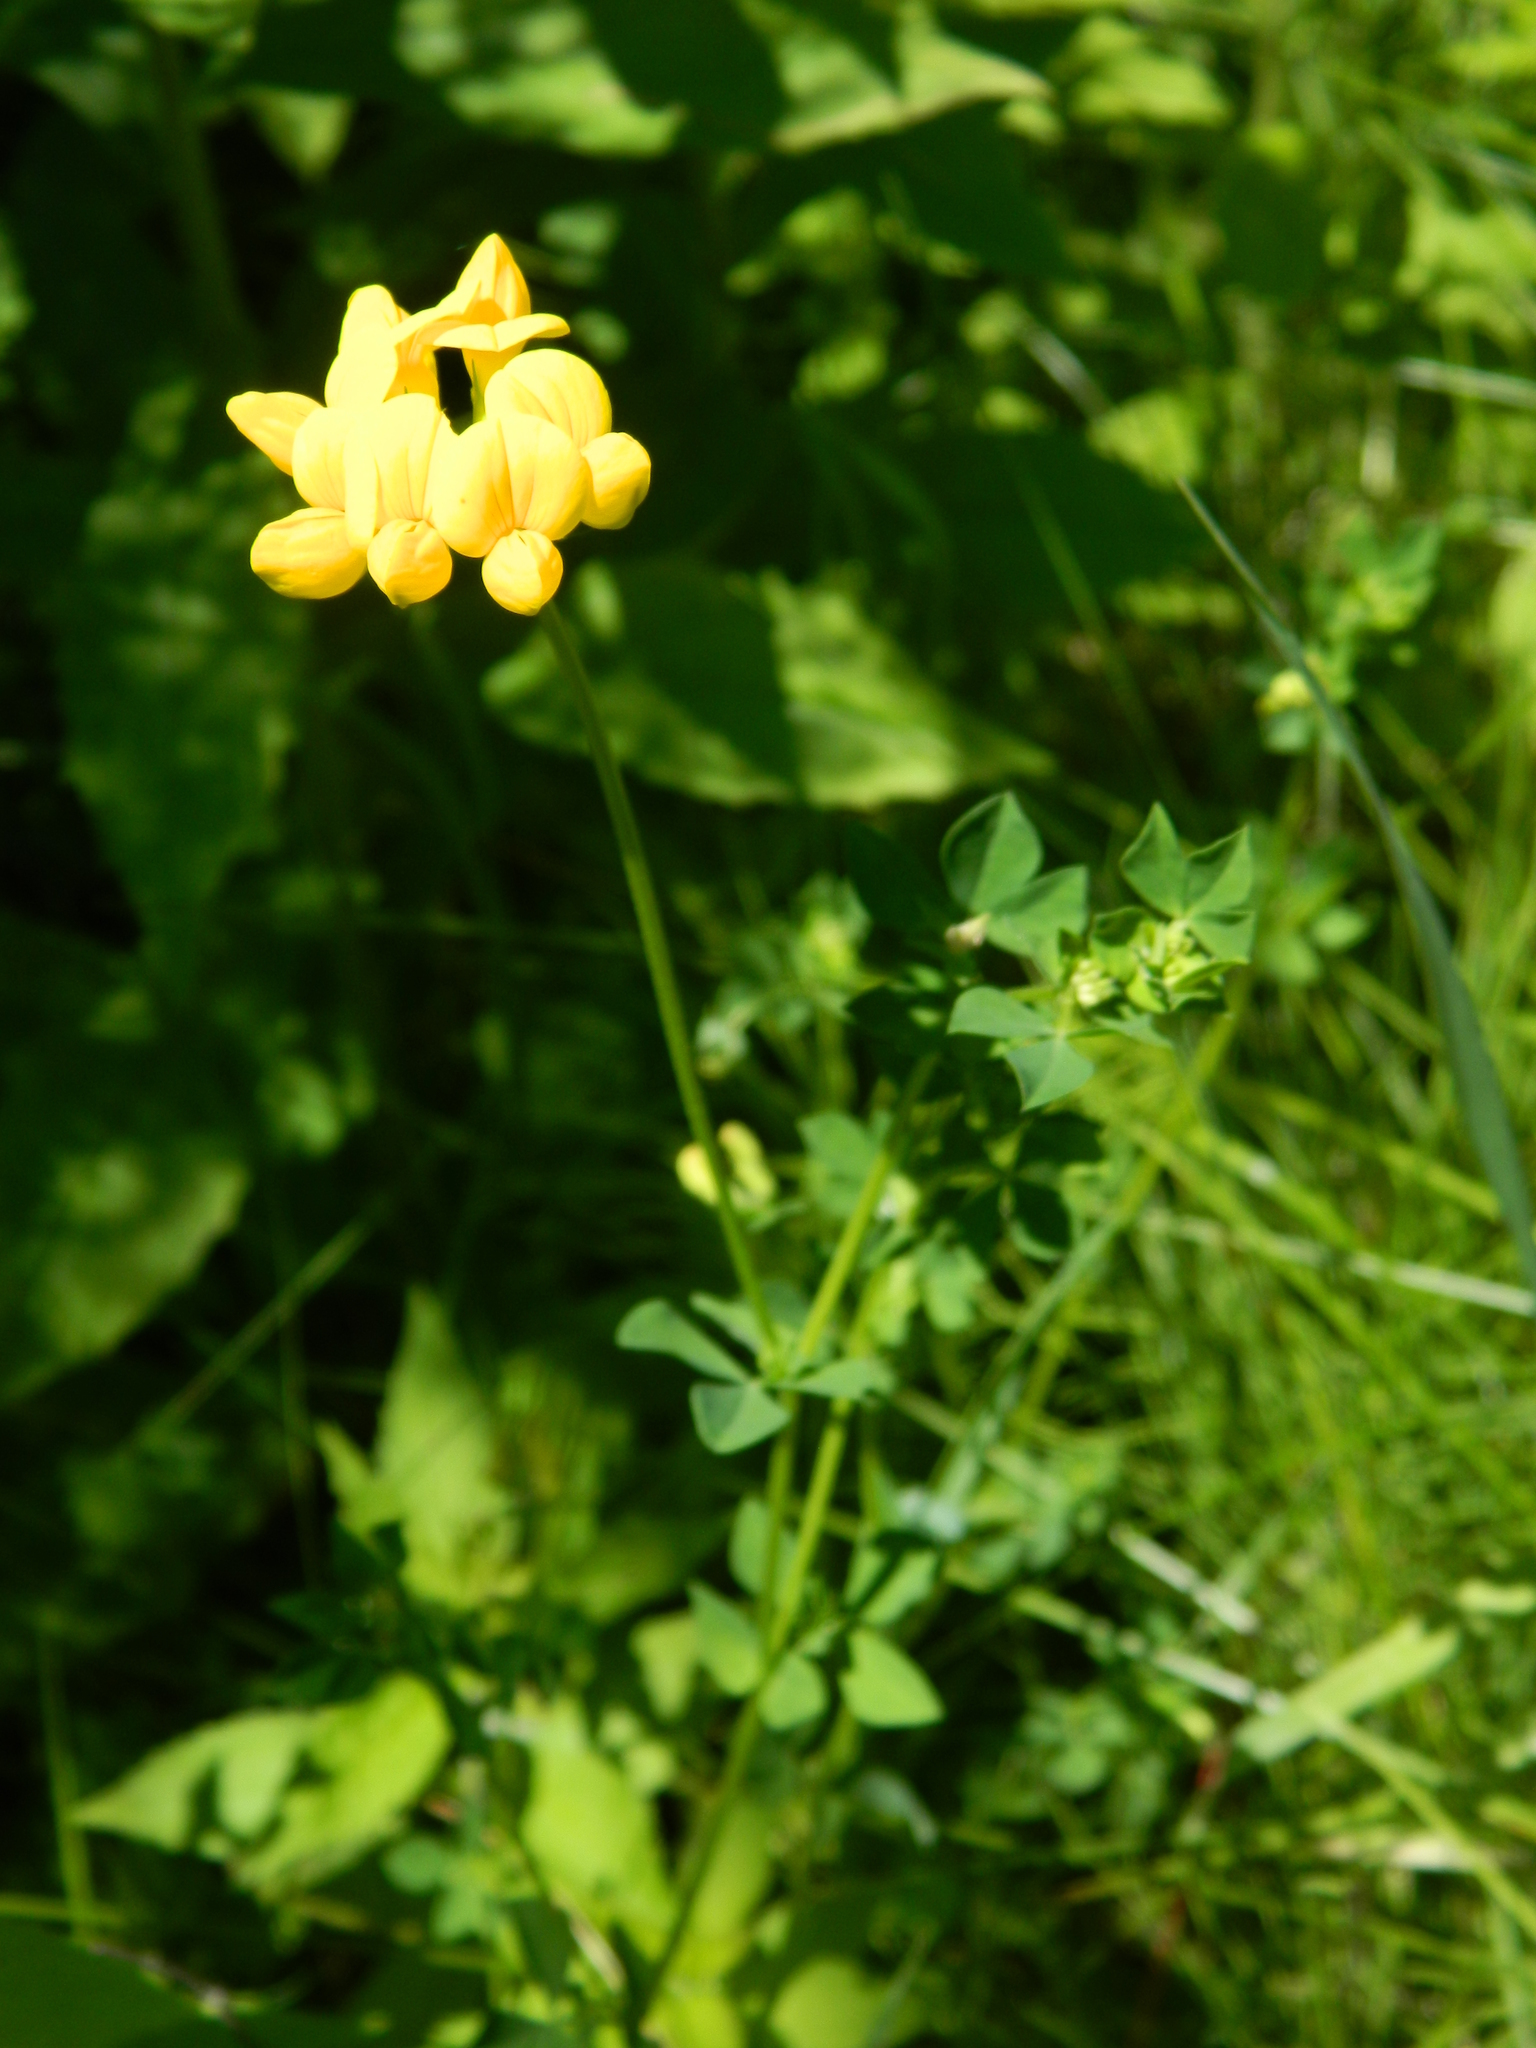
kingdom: Plantae
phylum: Tracheophyta
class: Magnoliopsida
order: Fabales
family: Fabaceae
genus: Lotus
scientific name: Lotus corniculatus
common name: Common bird's-foot-trefoil
